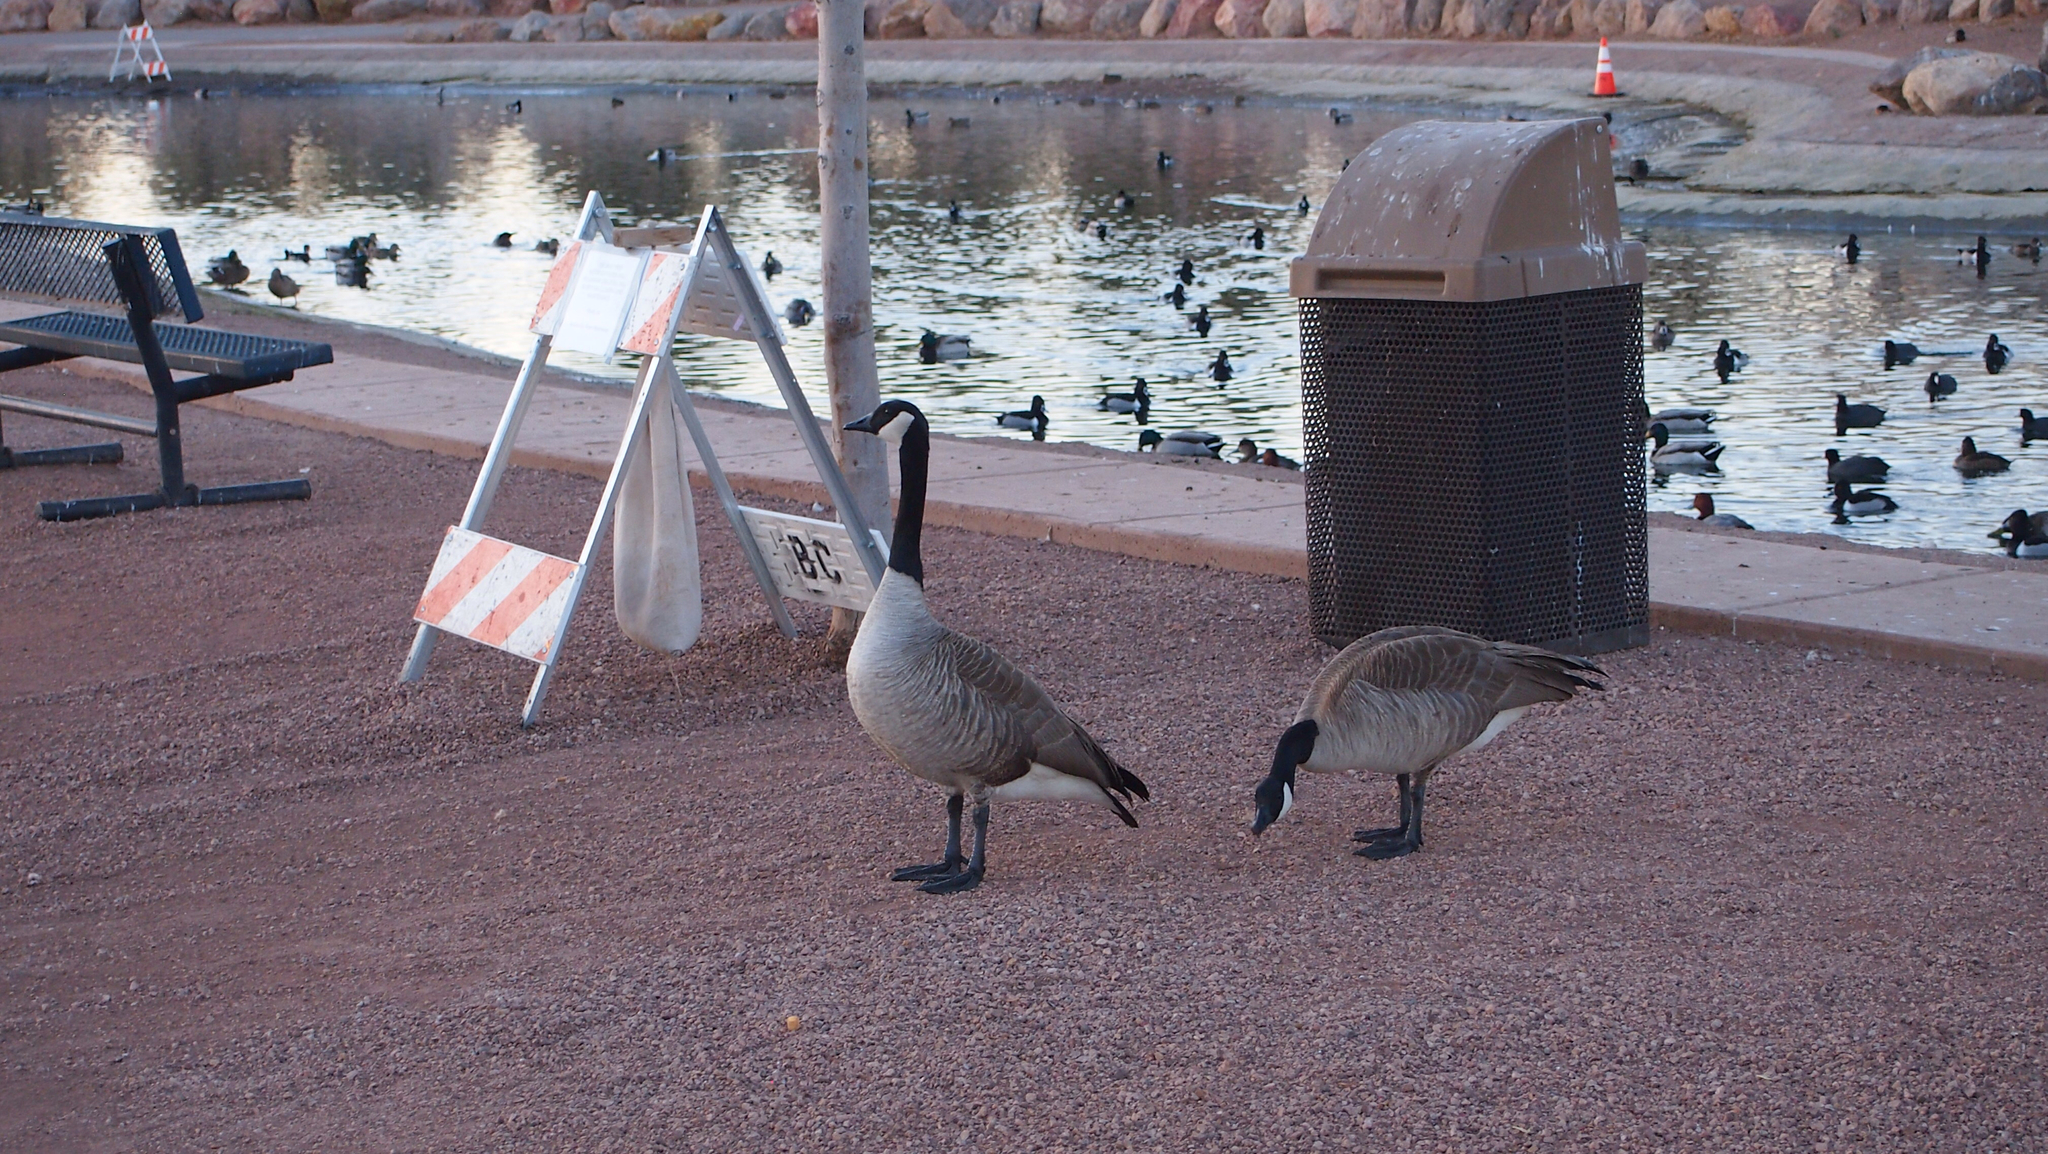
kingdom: Animalia
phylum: Chordata
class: Aves
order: Anseriformes
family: Anatidae
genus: Branta
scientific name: Branta canadensis
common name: Canada goose
